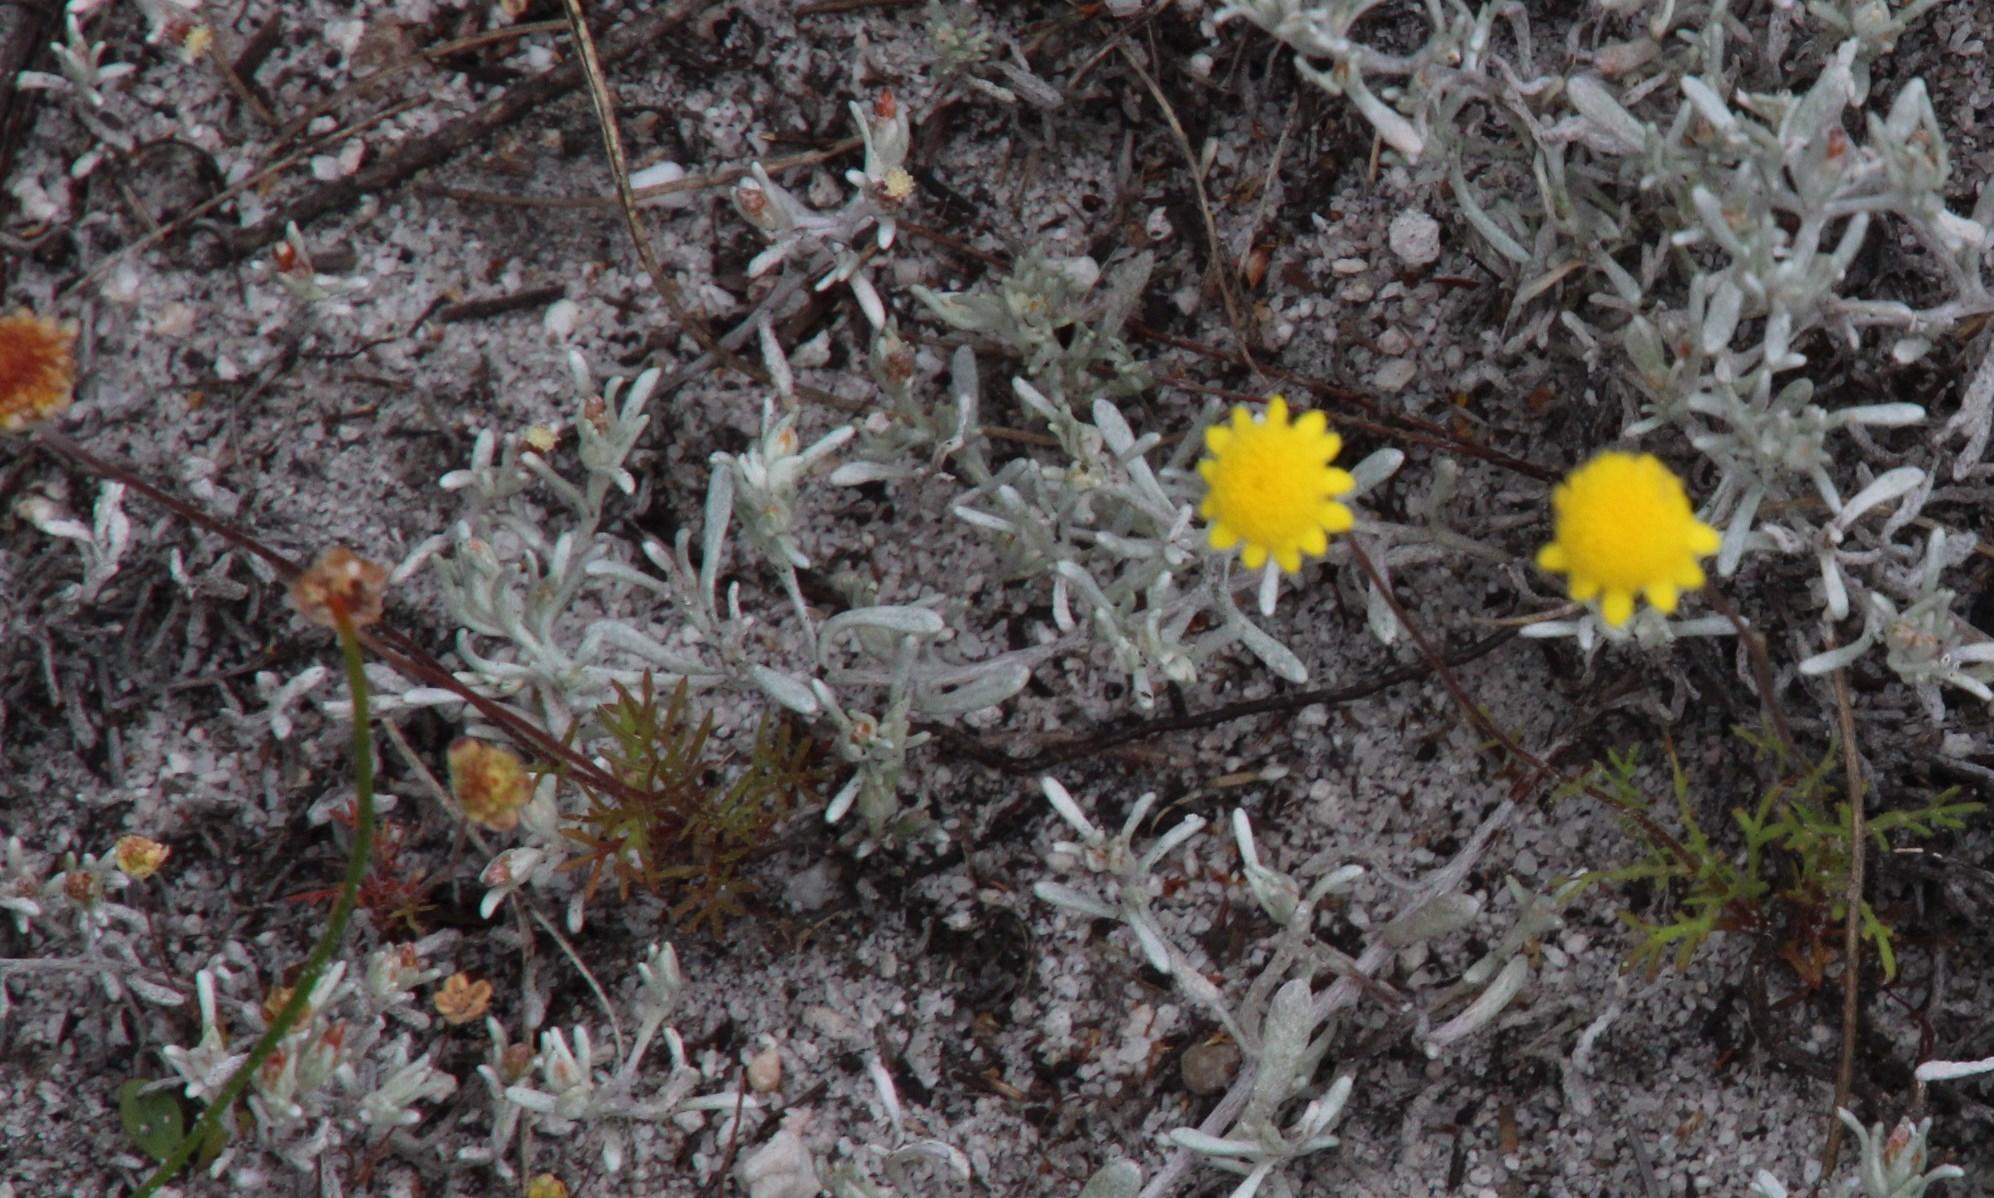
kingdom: Plantae
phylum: Tracheophyta
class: Magnoliopsida
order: Asterales
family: Asteraceae
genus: Cotula
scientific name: Cotula pruinosa
